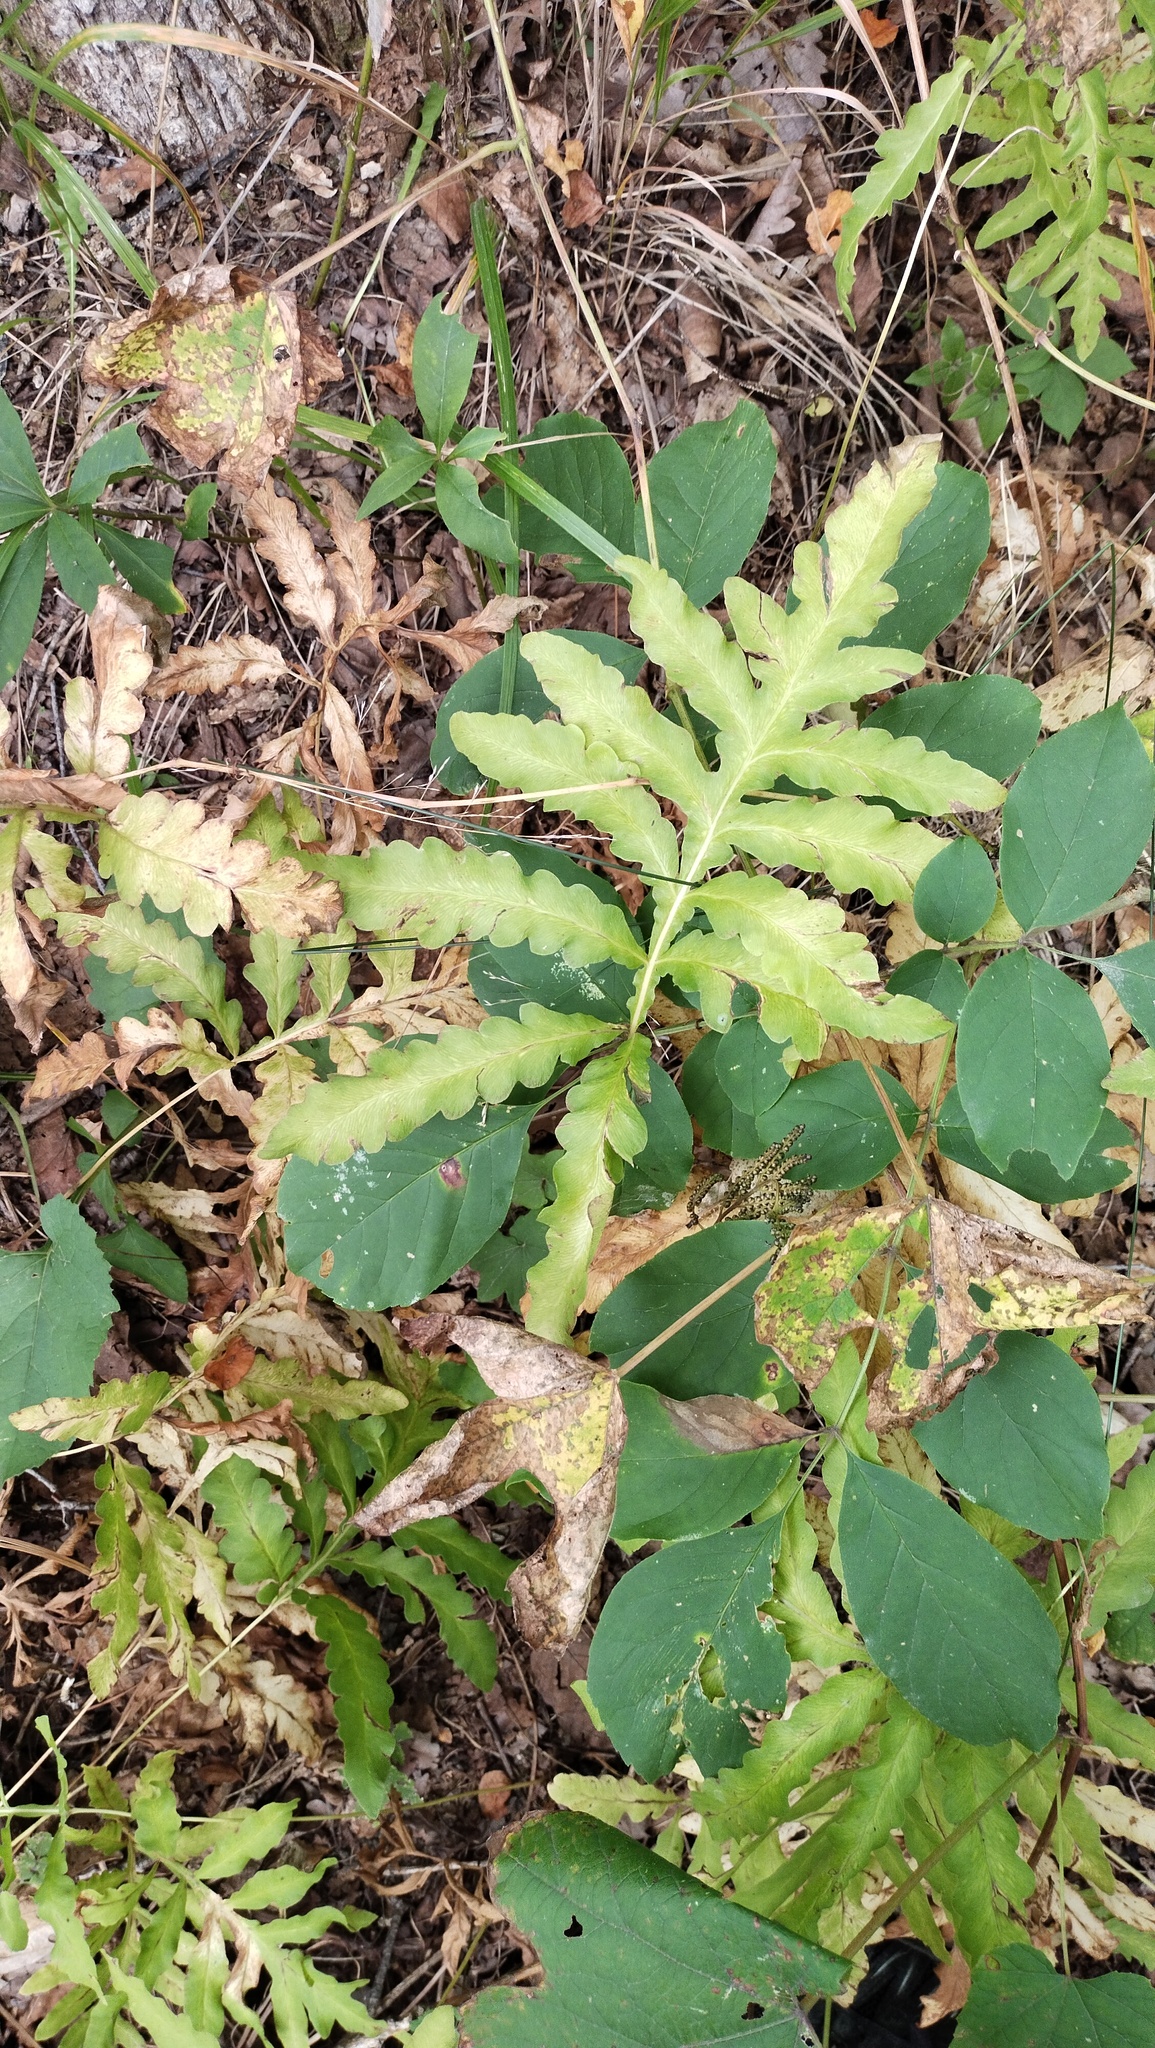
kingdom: Plantae
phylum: Tracheophyta
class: Polypodiopsida
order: Polypodiales
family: Onocleaceae
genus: Onoclea
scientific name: Onoclea sensibilis
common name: Sensitive fern
